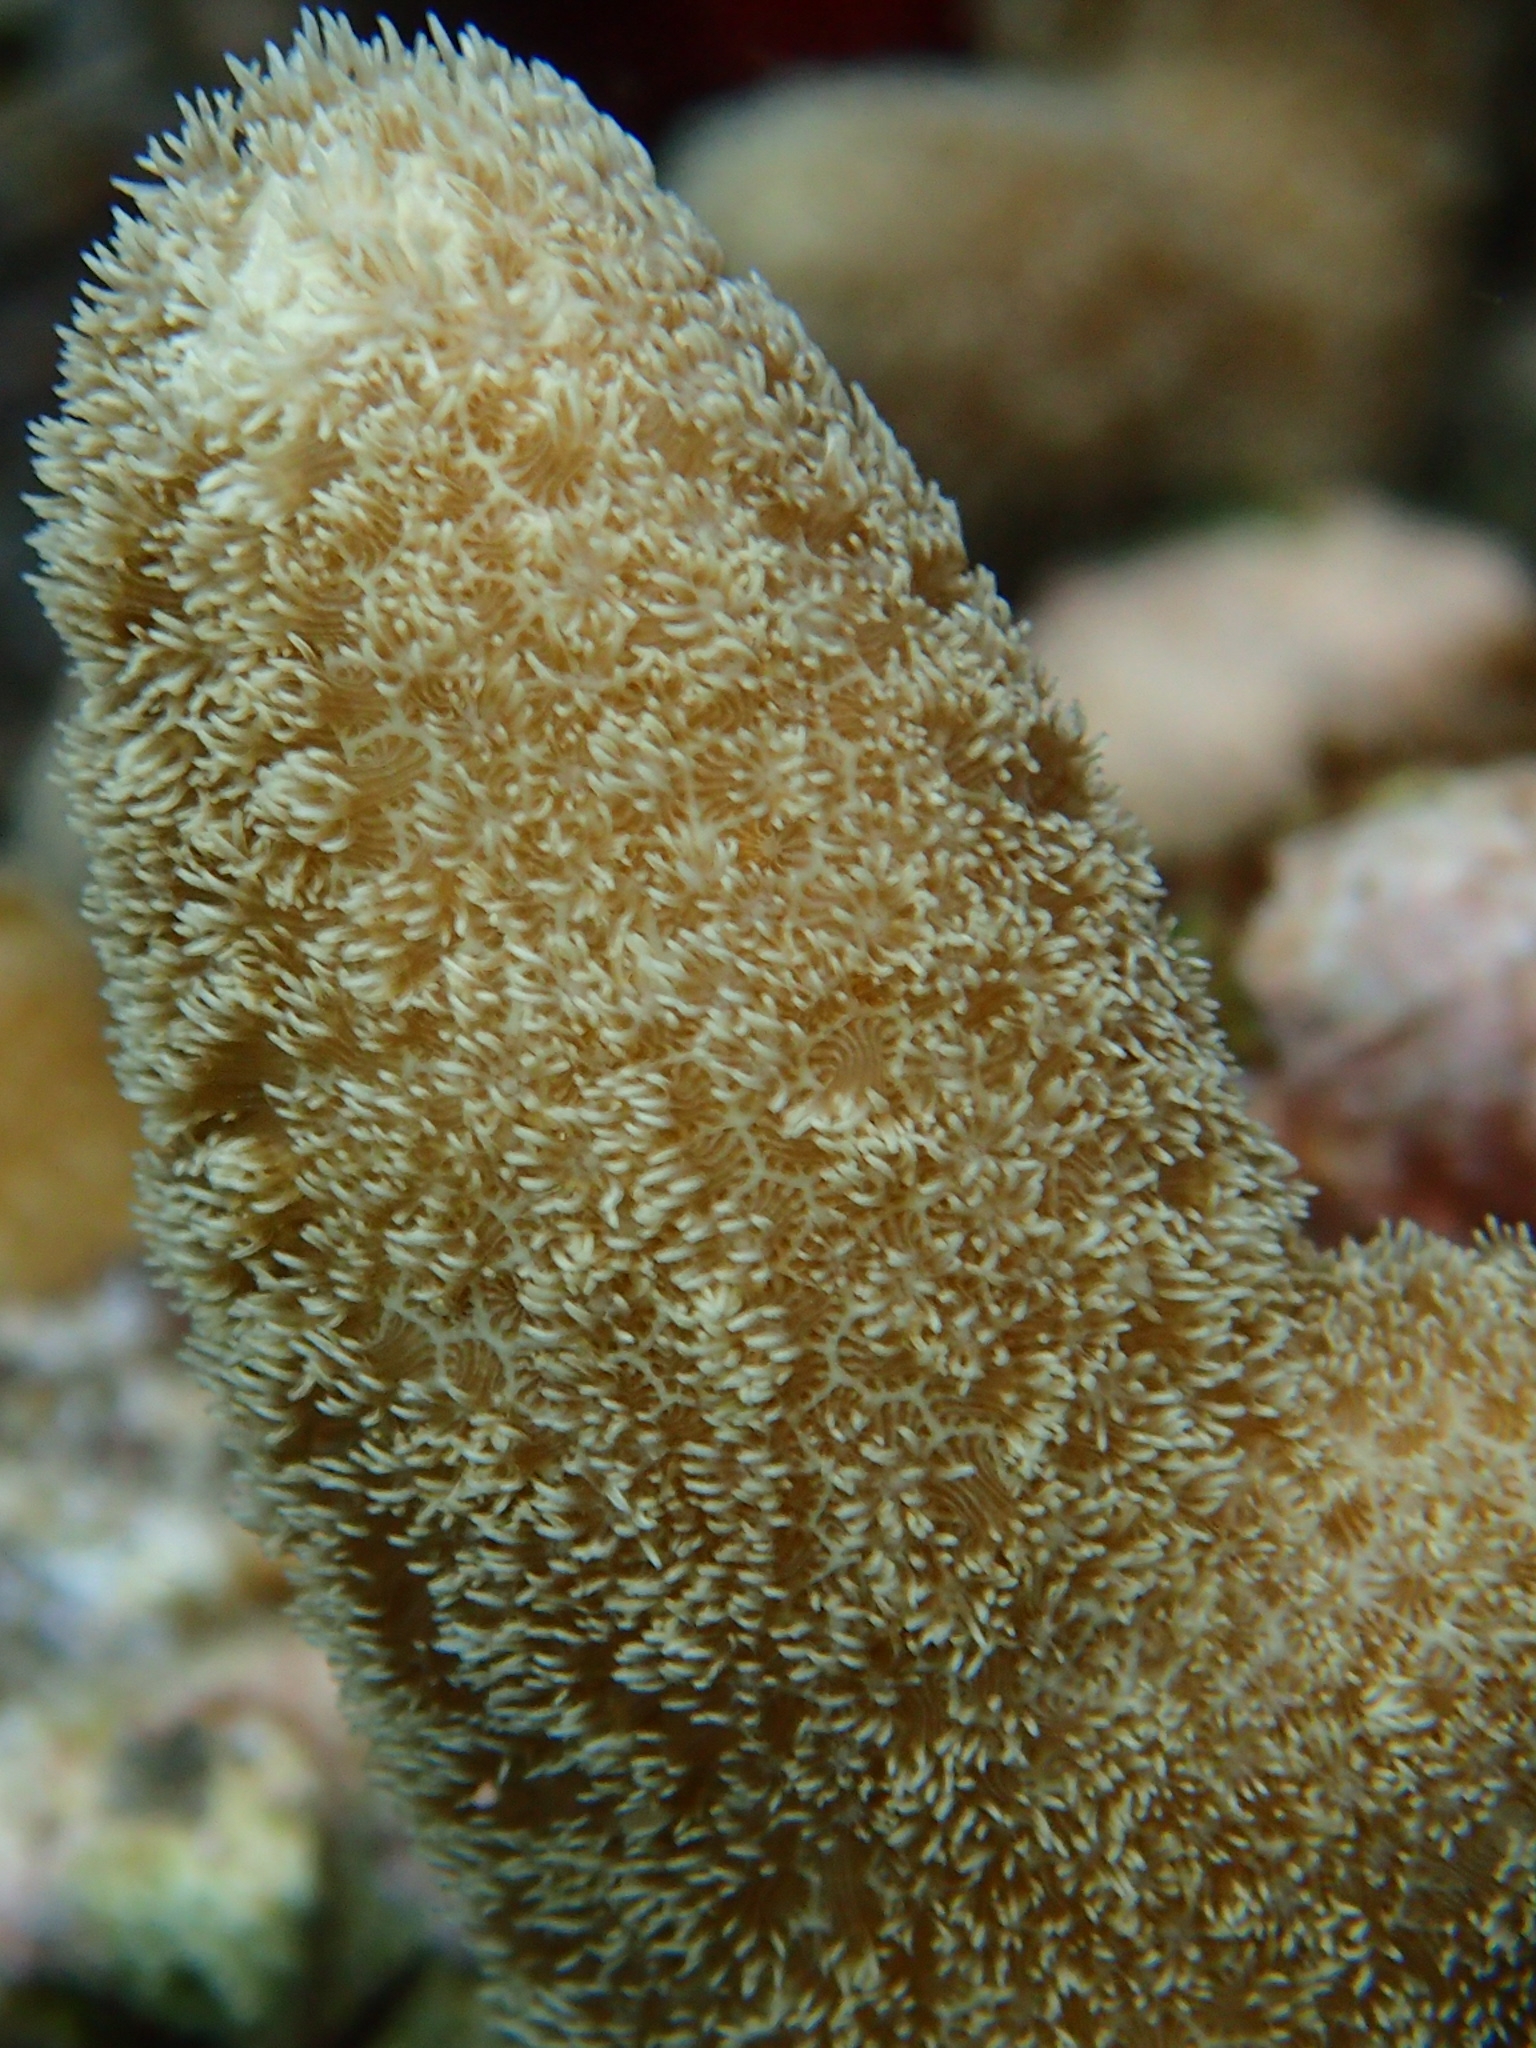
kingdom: Animalia
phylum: Cnidaria
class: Anthozoa
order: Scleractinia
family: Poritidae
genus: Porites
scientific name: Porites porites
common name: Finger coral
